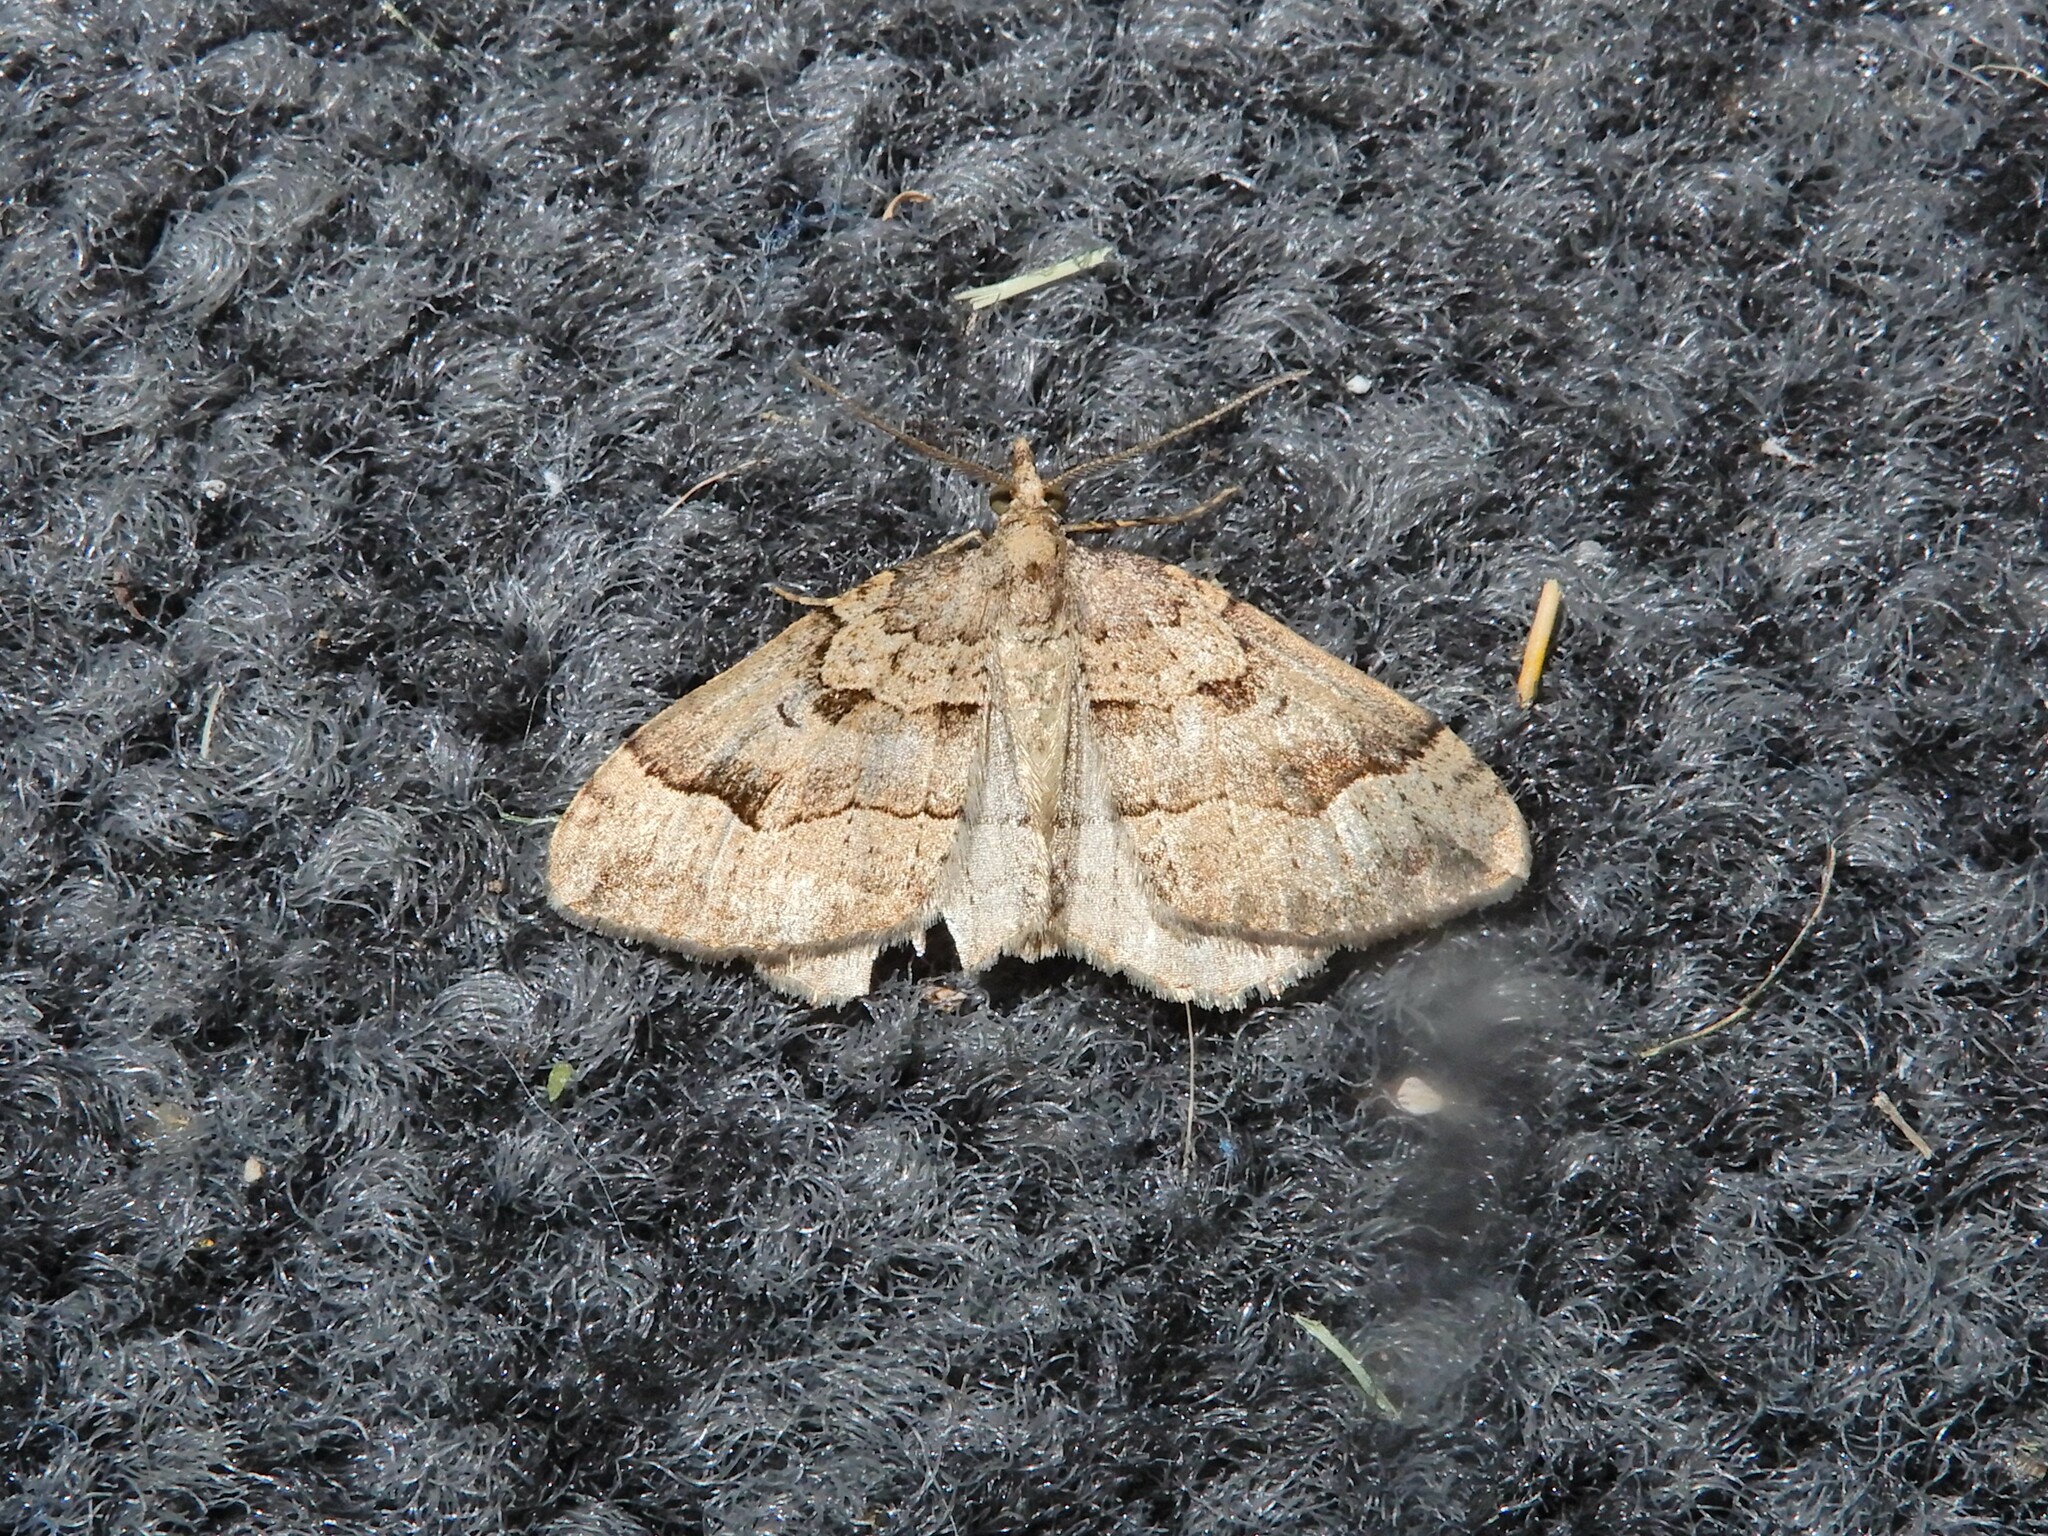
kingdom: Animalia
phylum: Arthropoda
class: Insecta
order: Lepidoptera
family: Geometridae
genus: Epyaxa
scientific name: Epyaxa rosearia
